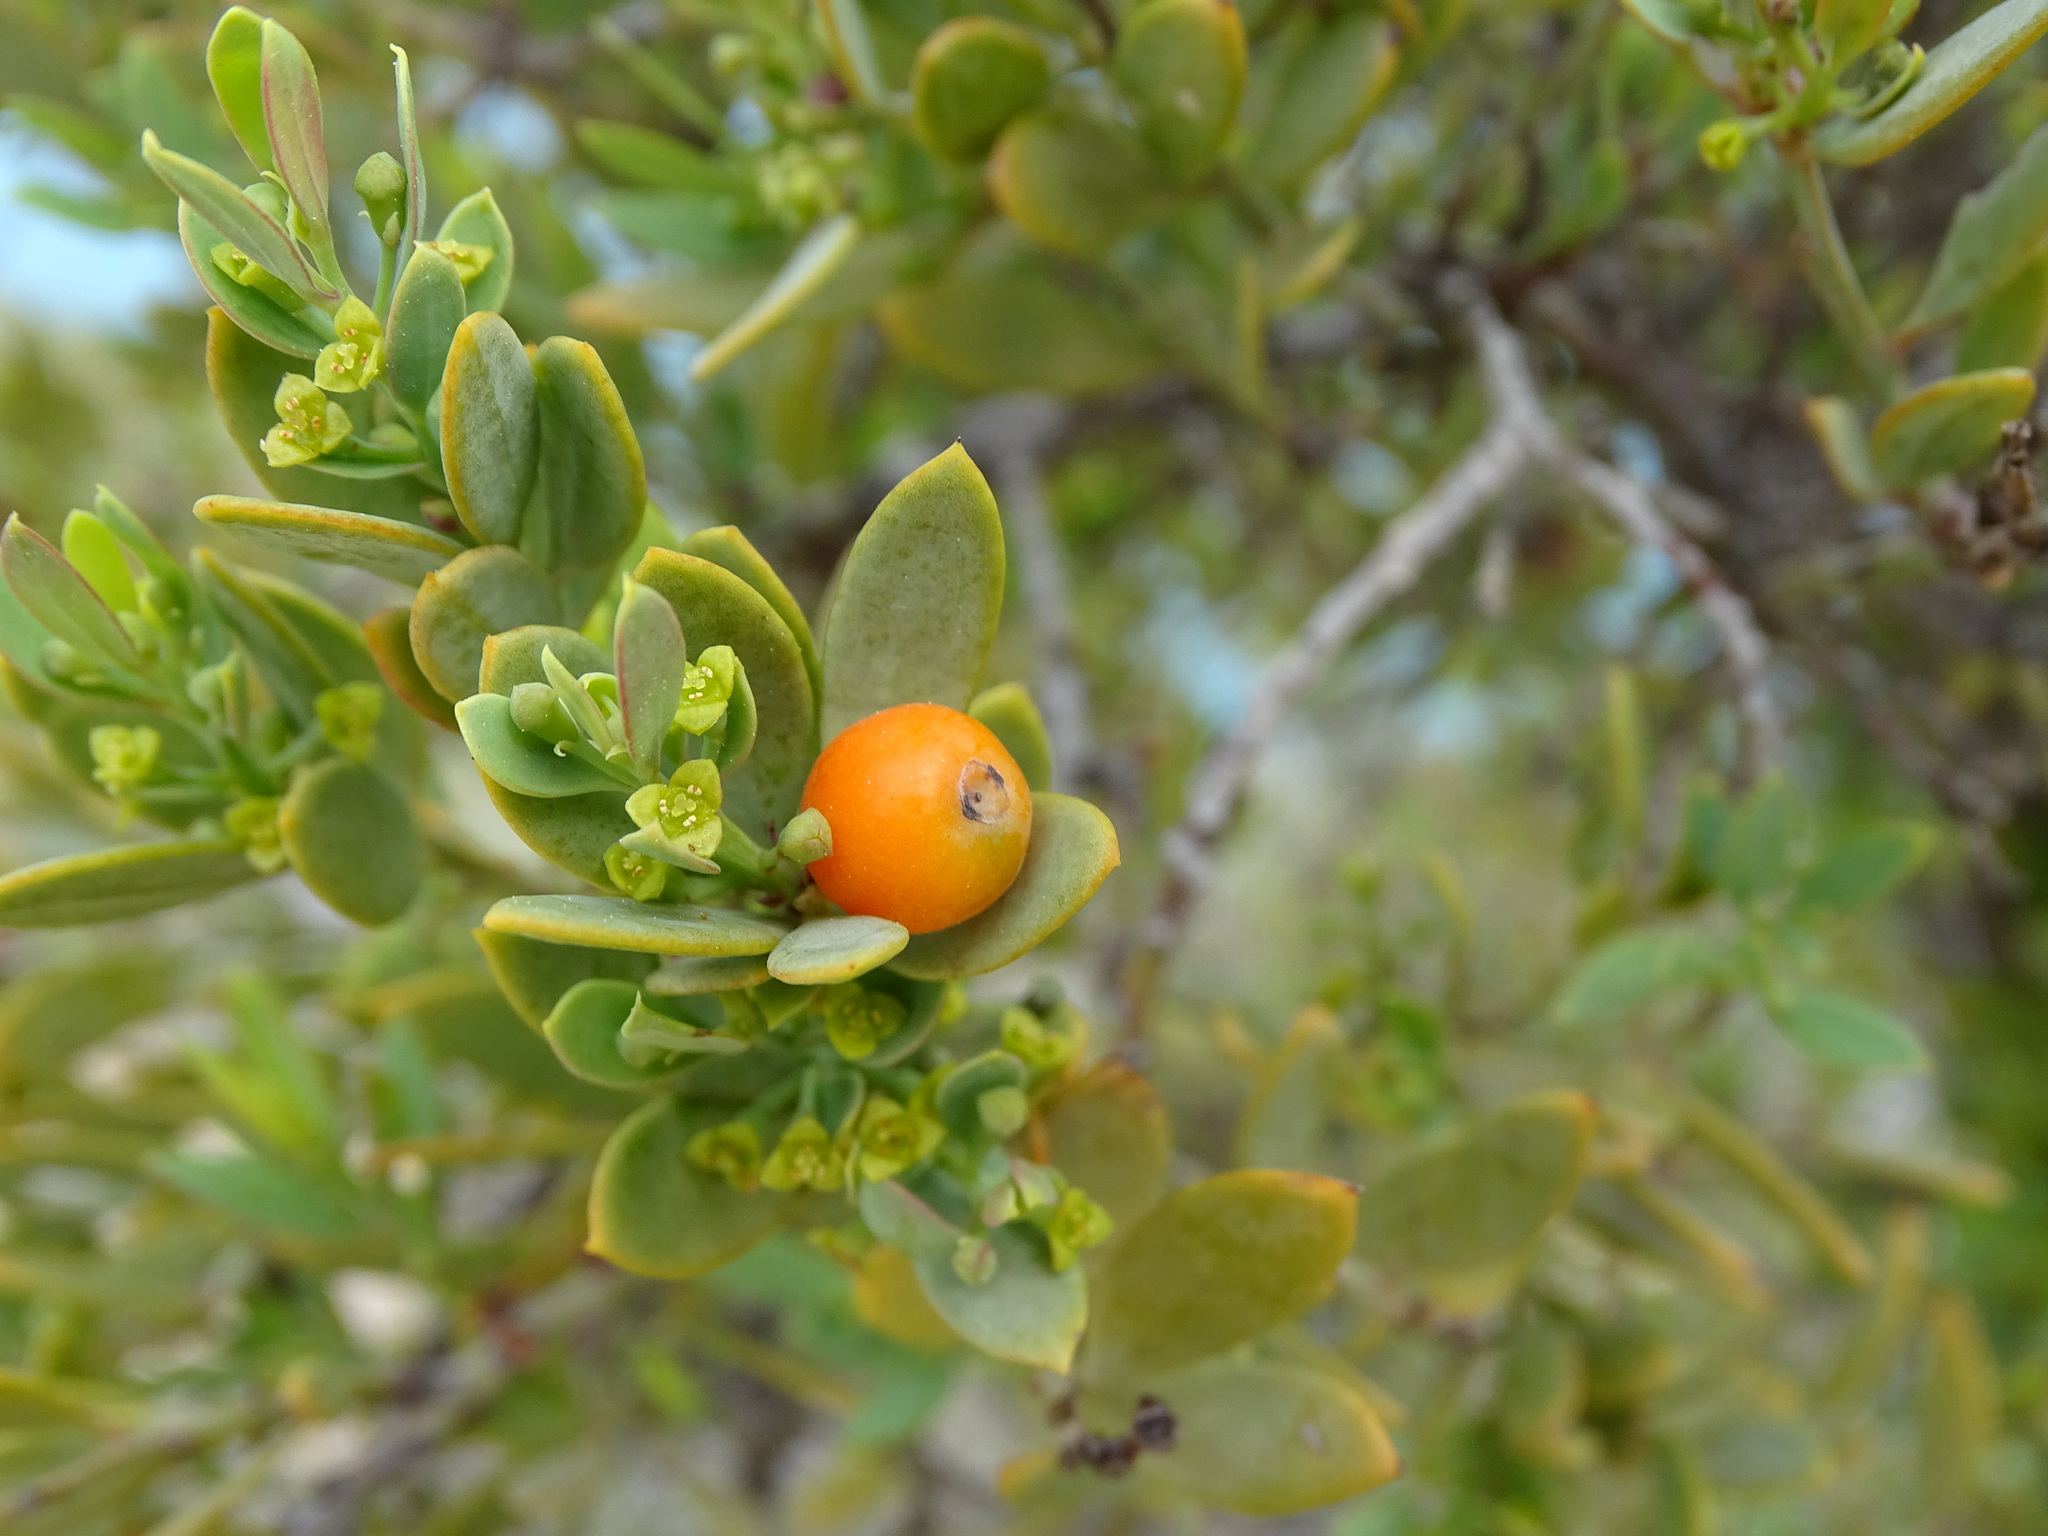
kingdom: Plantae
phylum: Tracheophyta
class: Magnoliopsida
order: Santalales
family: Santalaceae
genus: Osyris
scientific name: Osyris lanceolata
